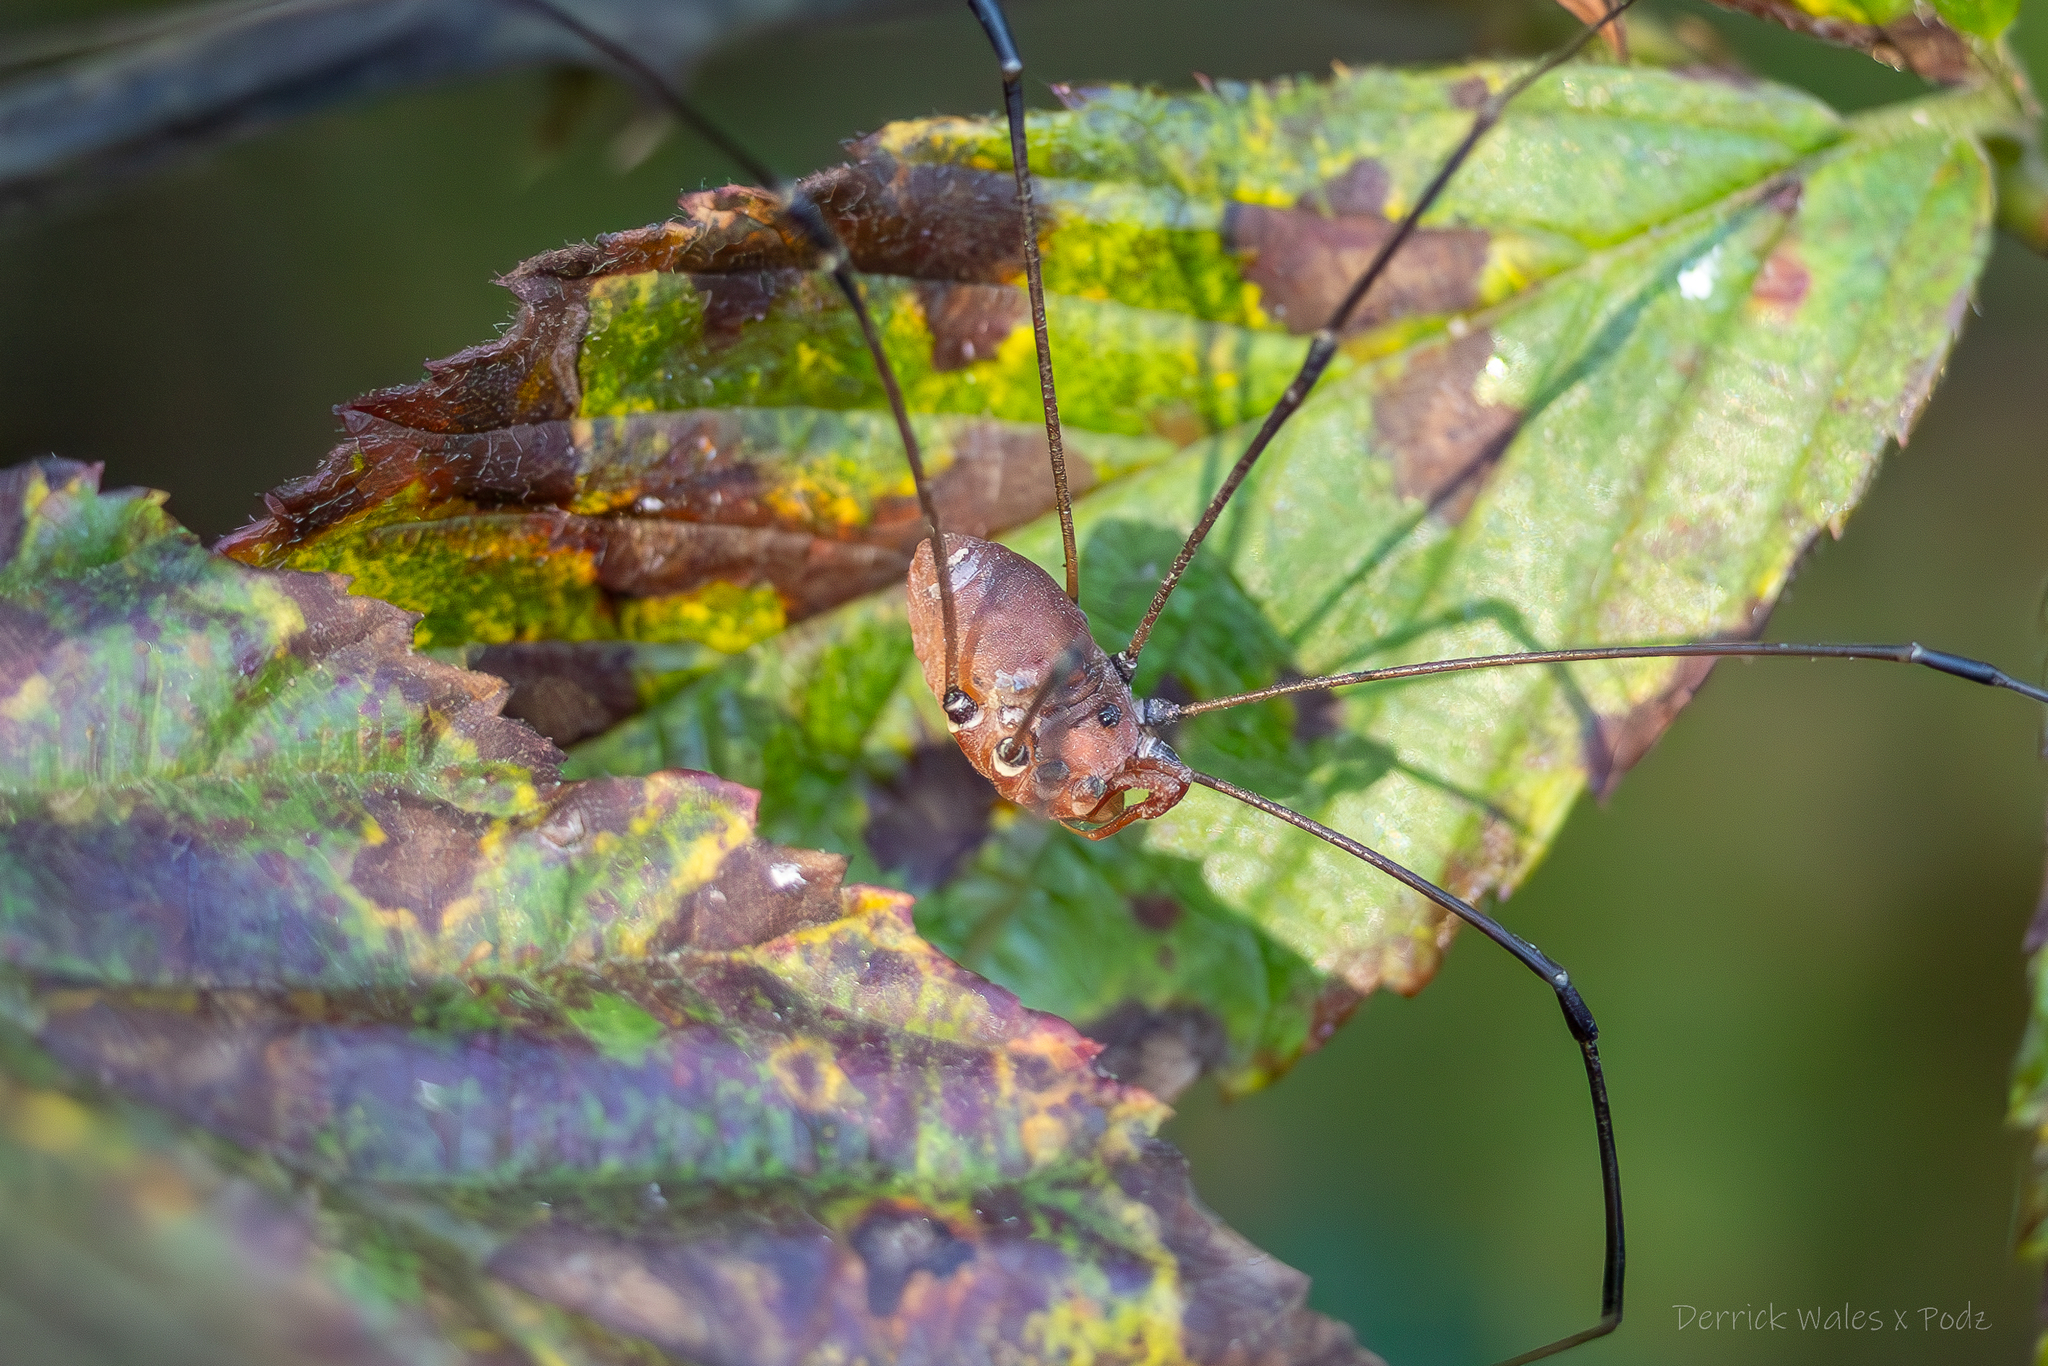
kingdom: Animalia
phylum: Arthropoda
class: Arachnida
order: Opiliones
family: Sclerosomatidae
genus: Leiobunum
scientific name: Leiobunum vittatum
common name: Eastern harvestman
